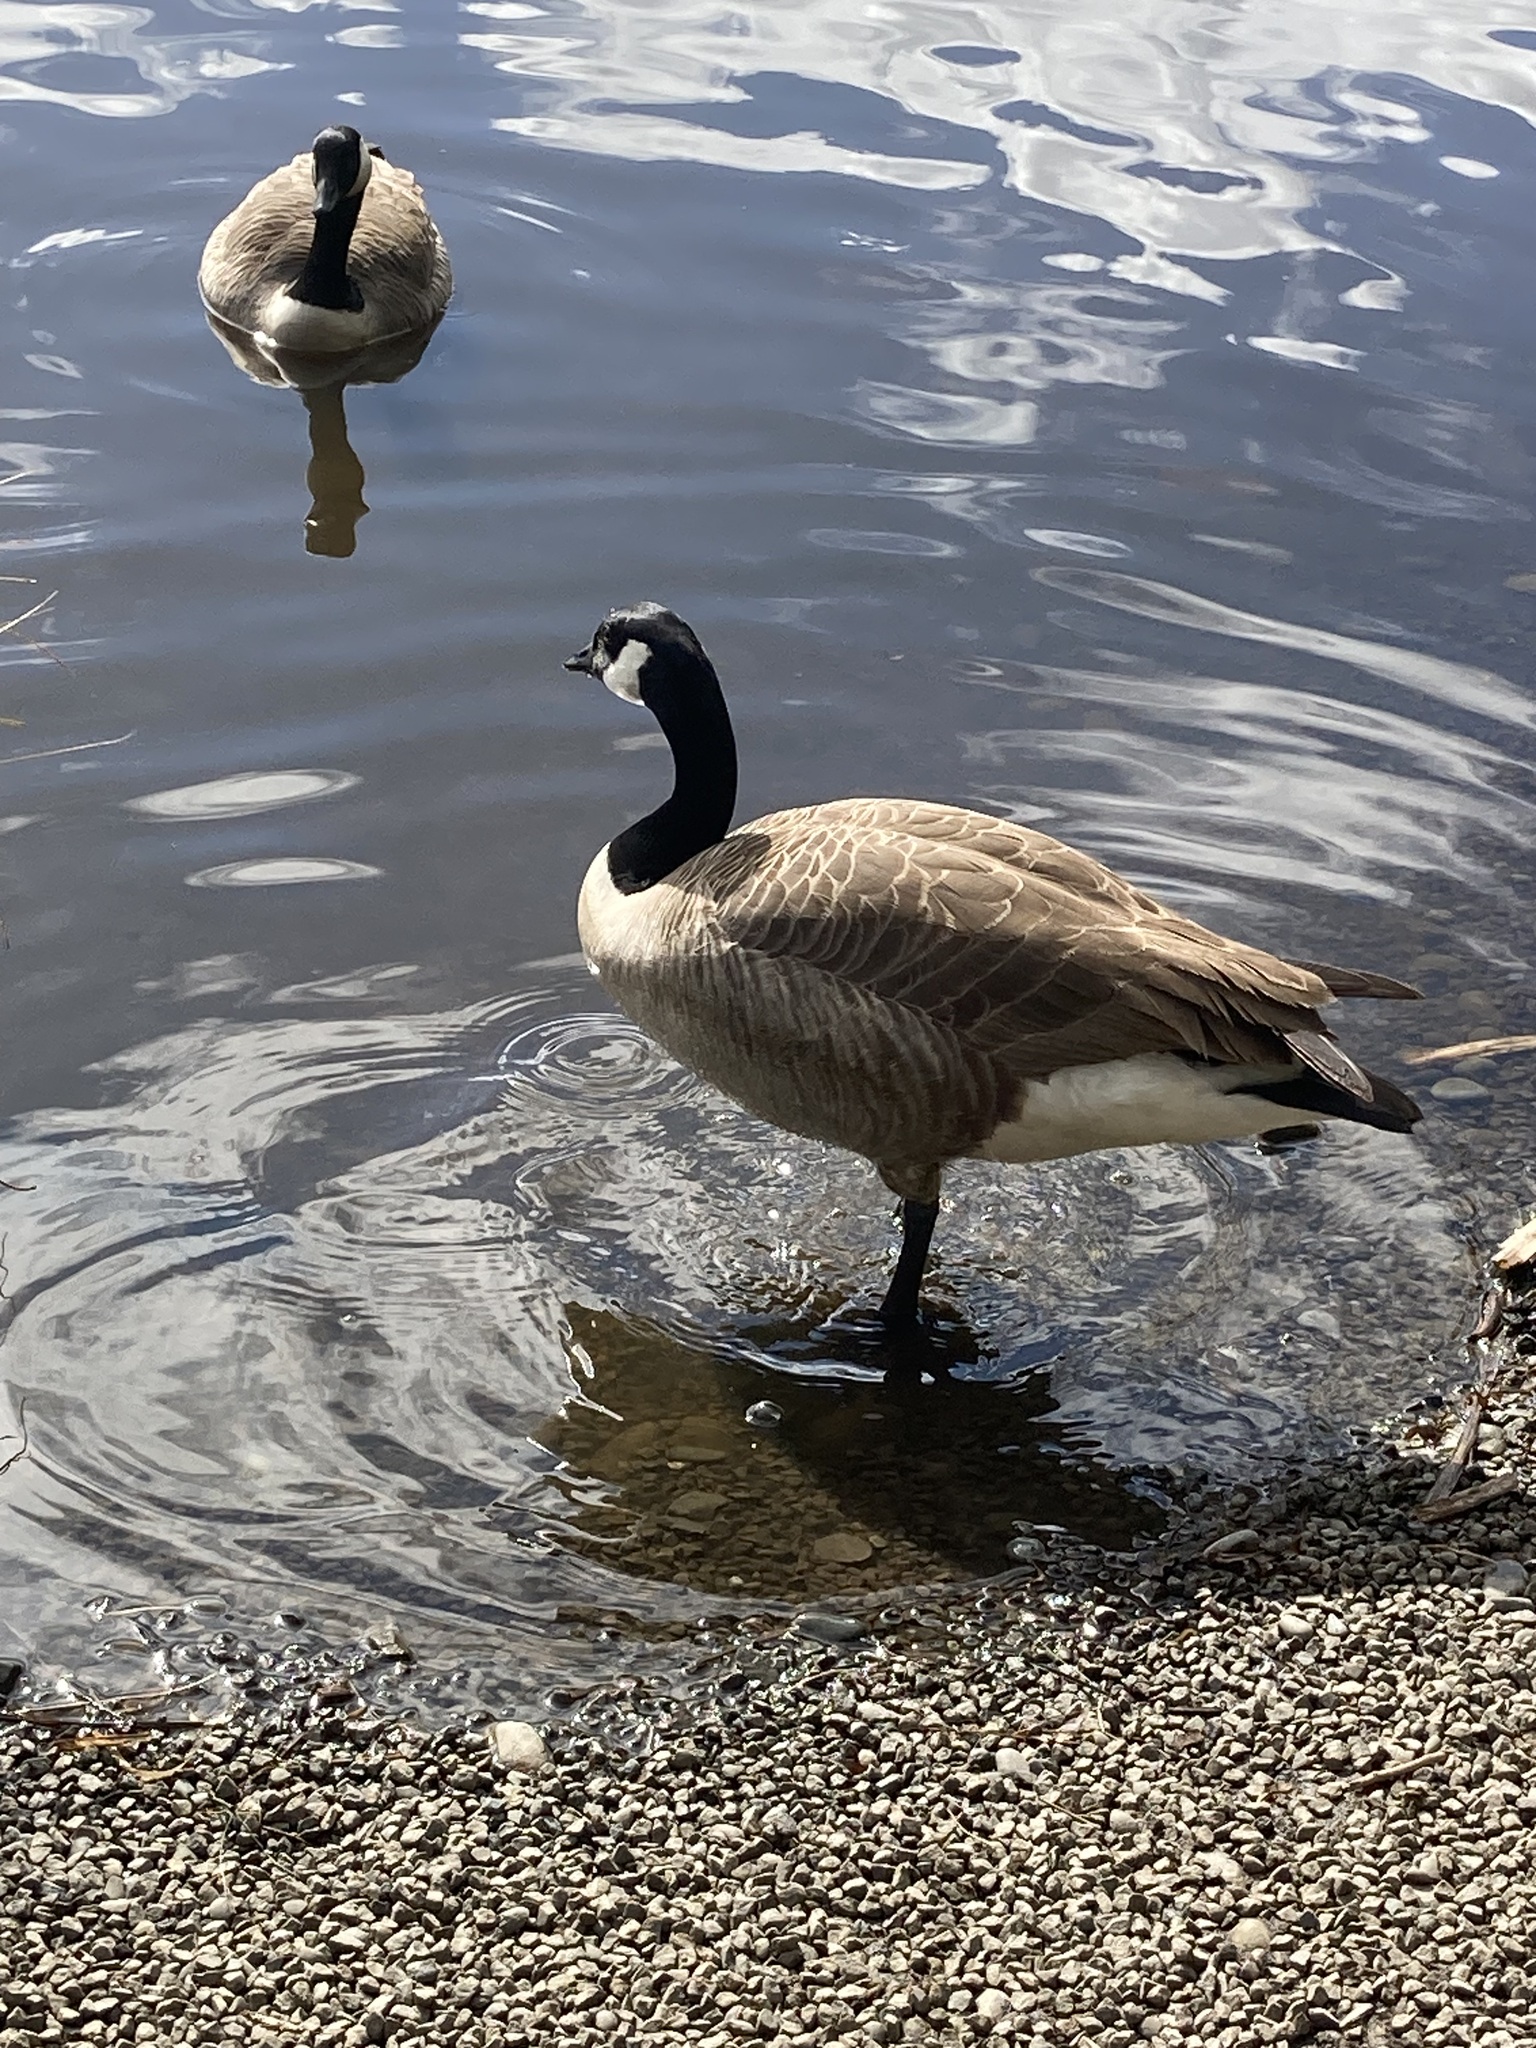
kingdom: Animalia
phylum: Chordata
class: Aves
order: Anseriformes
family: Anatidae
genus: Branta
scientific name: Branta canadensis
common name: Canada goose
